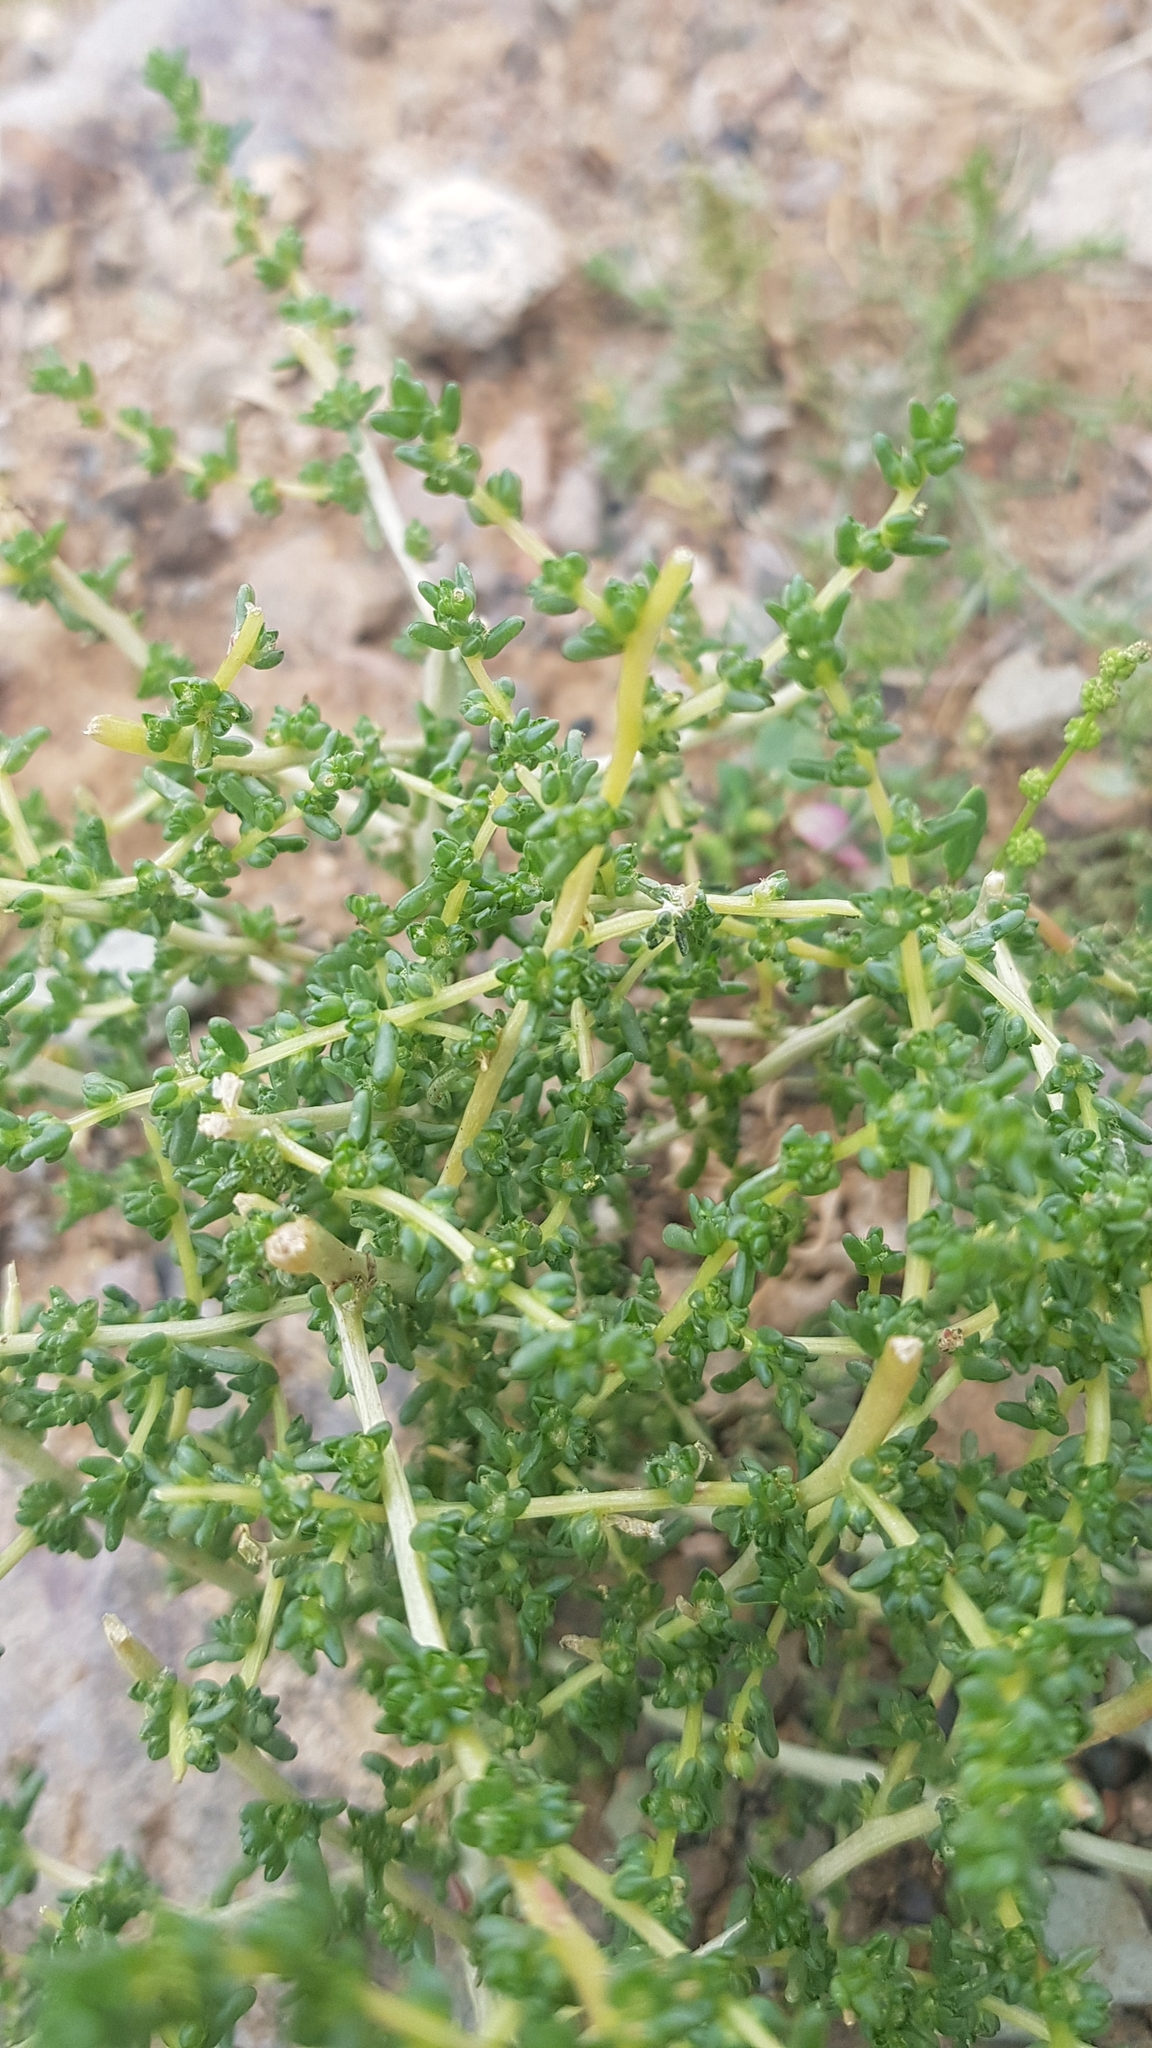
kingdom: Plantae
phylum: Tracheophyta
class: Magnoliopsida
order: Caryophyllales
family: Amaranthaceae
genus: Halogeton
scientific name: Halogeton arachnoides
